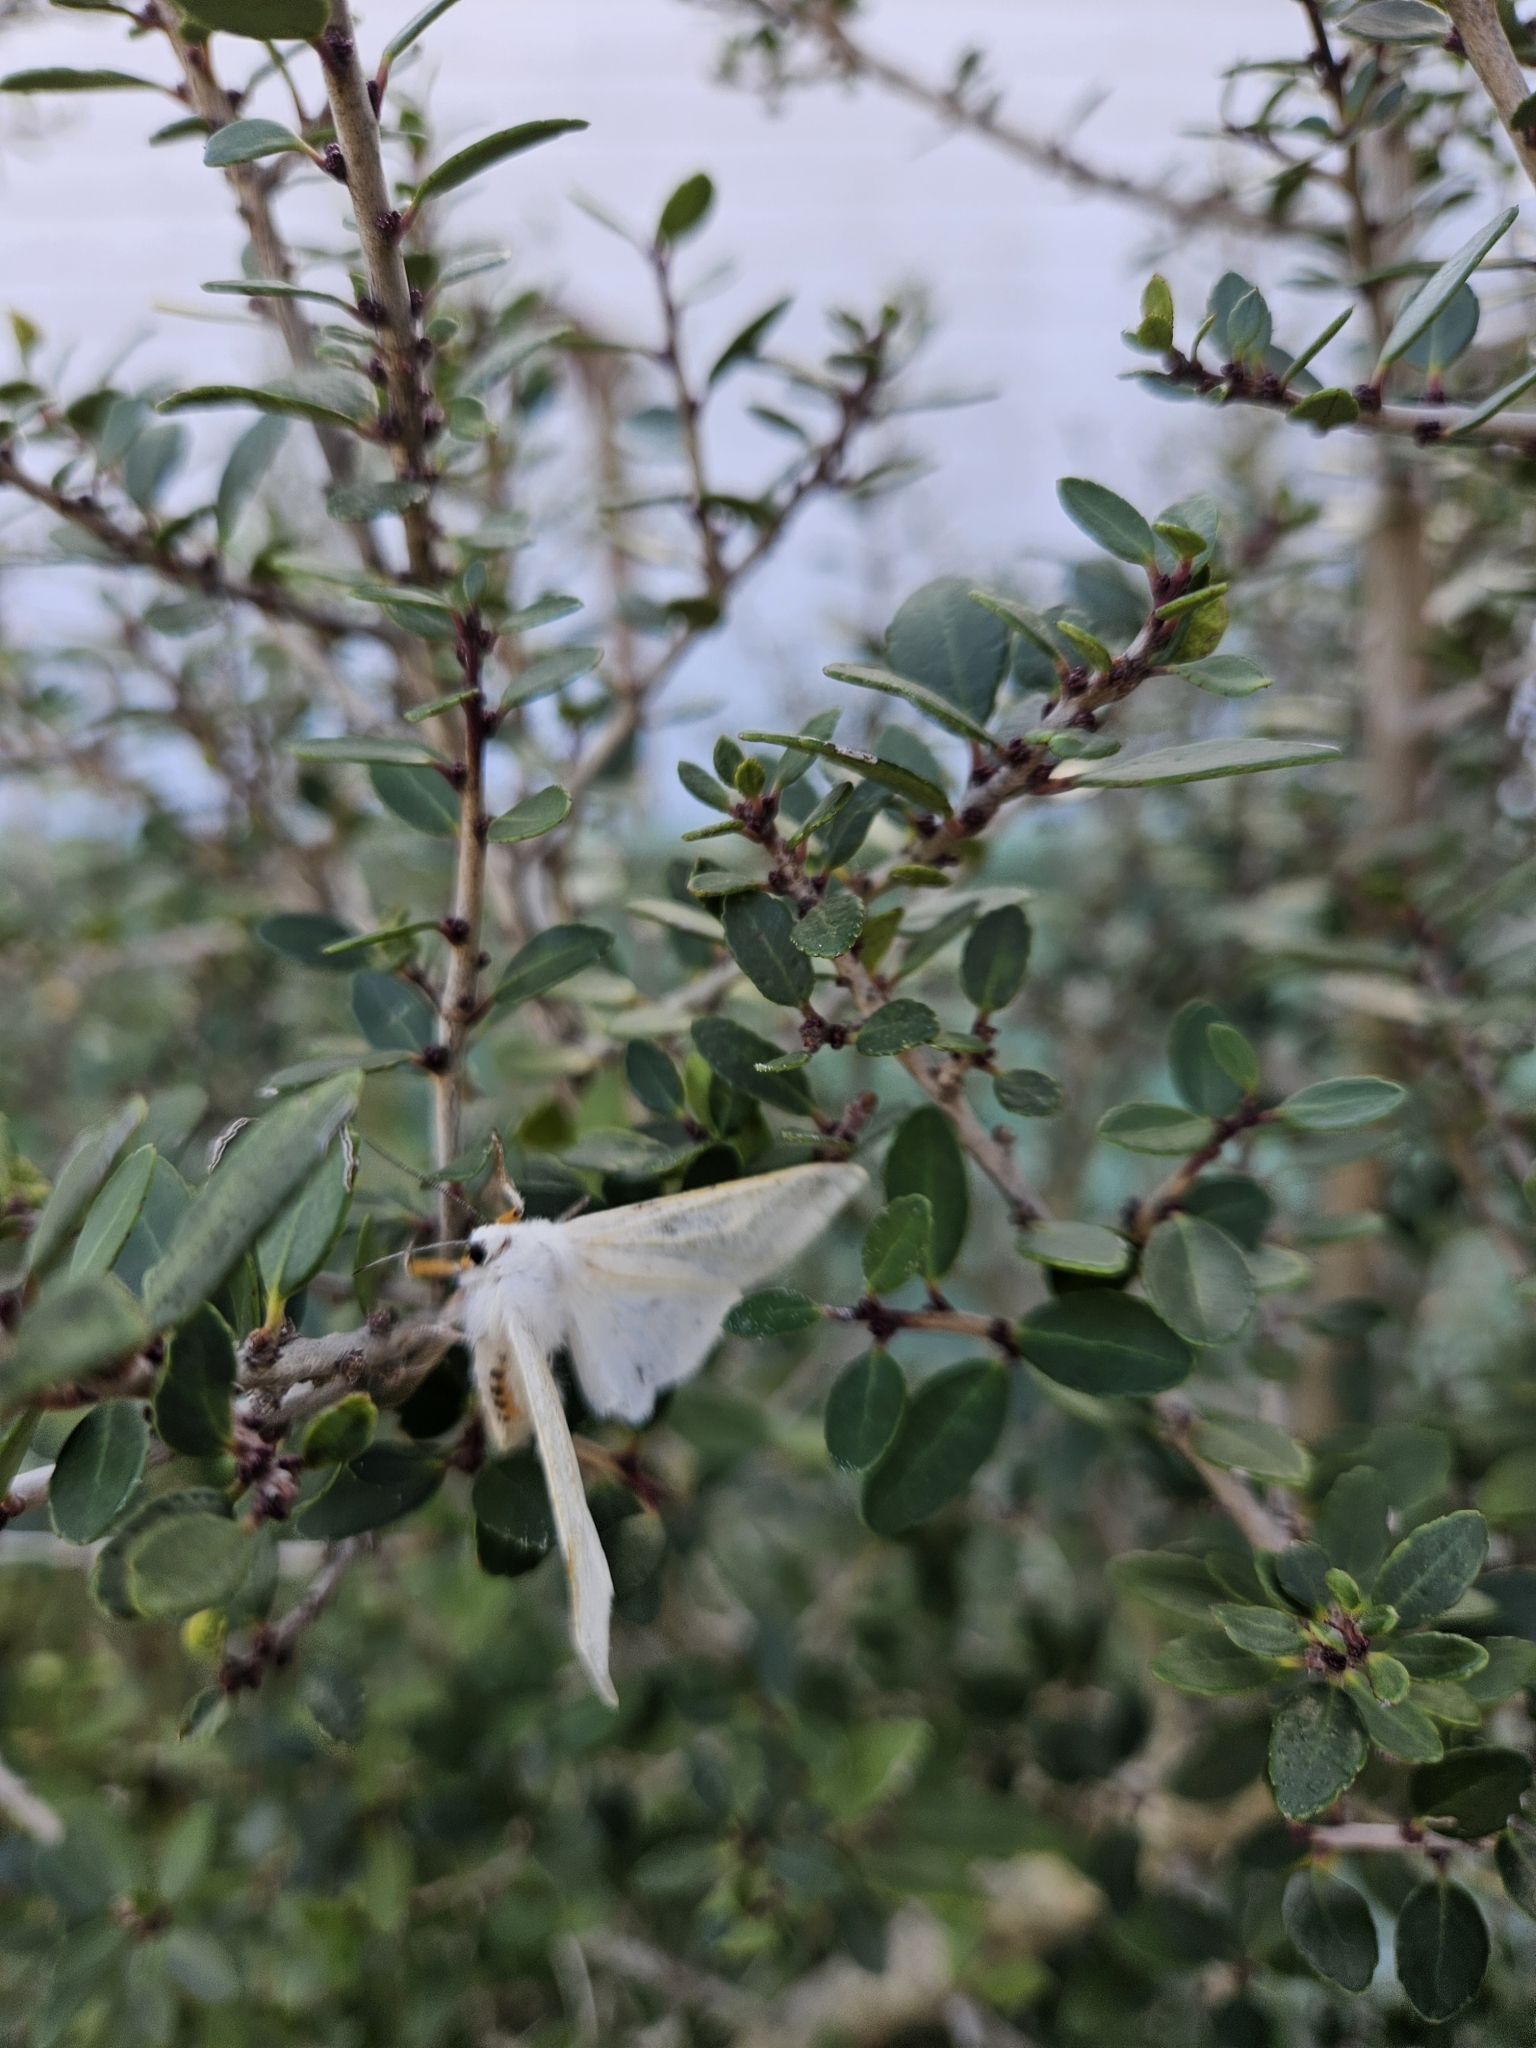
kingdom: Animalia
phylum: Arthropoda
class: Insecta
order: Lepidoptera
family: Erebidae
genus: Spilosoma
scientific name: Spilosoma virginica
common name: Virginia tiger moth
